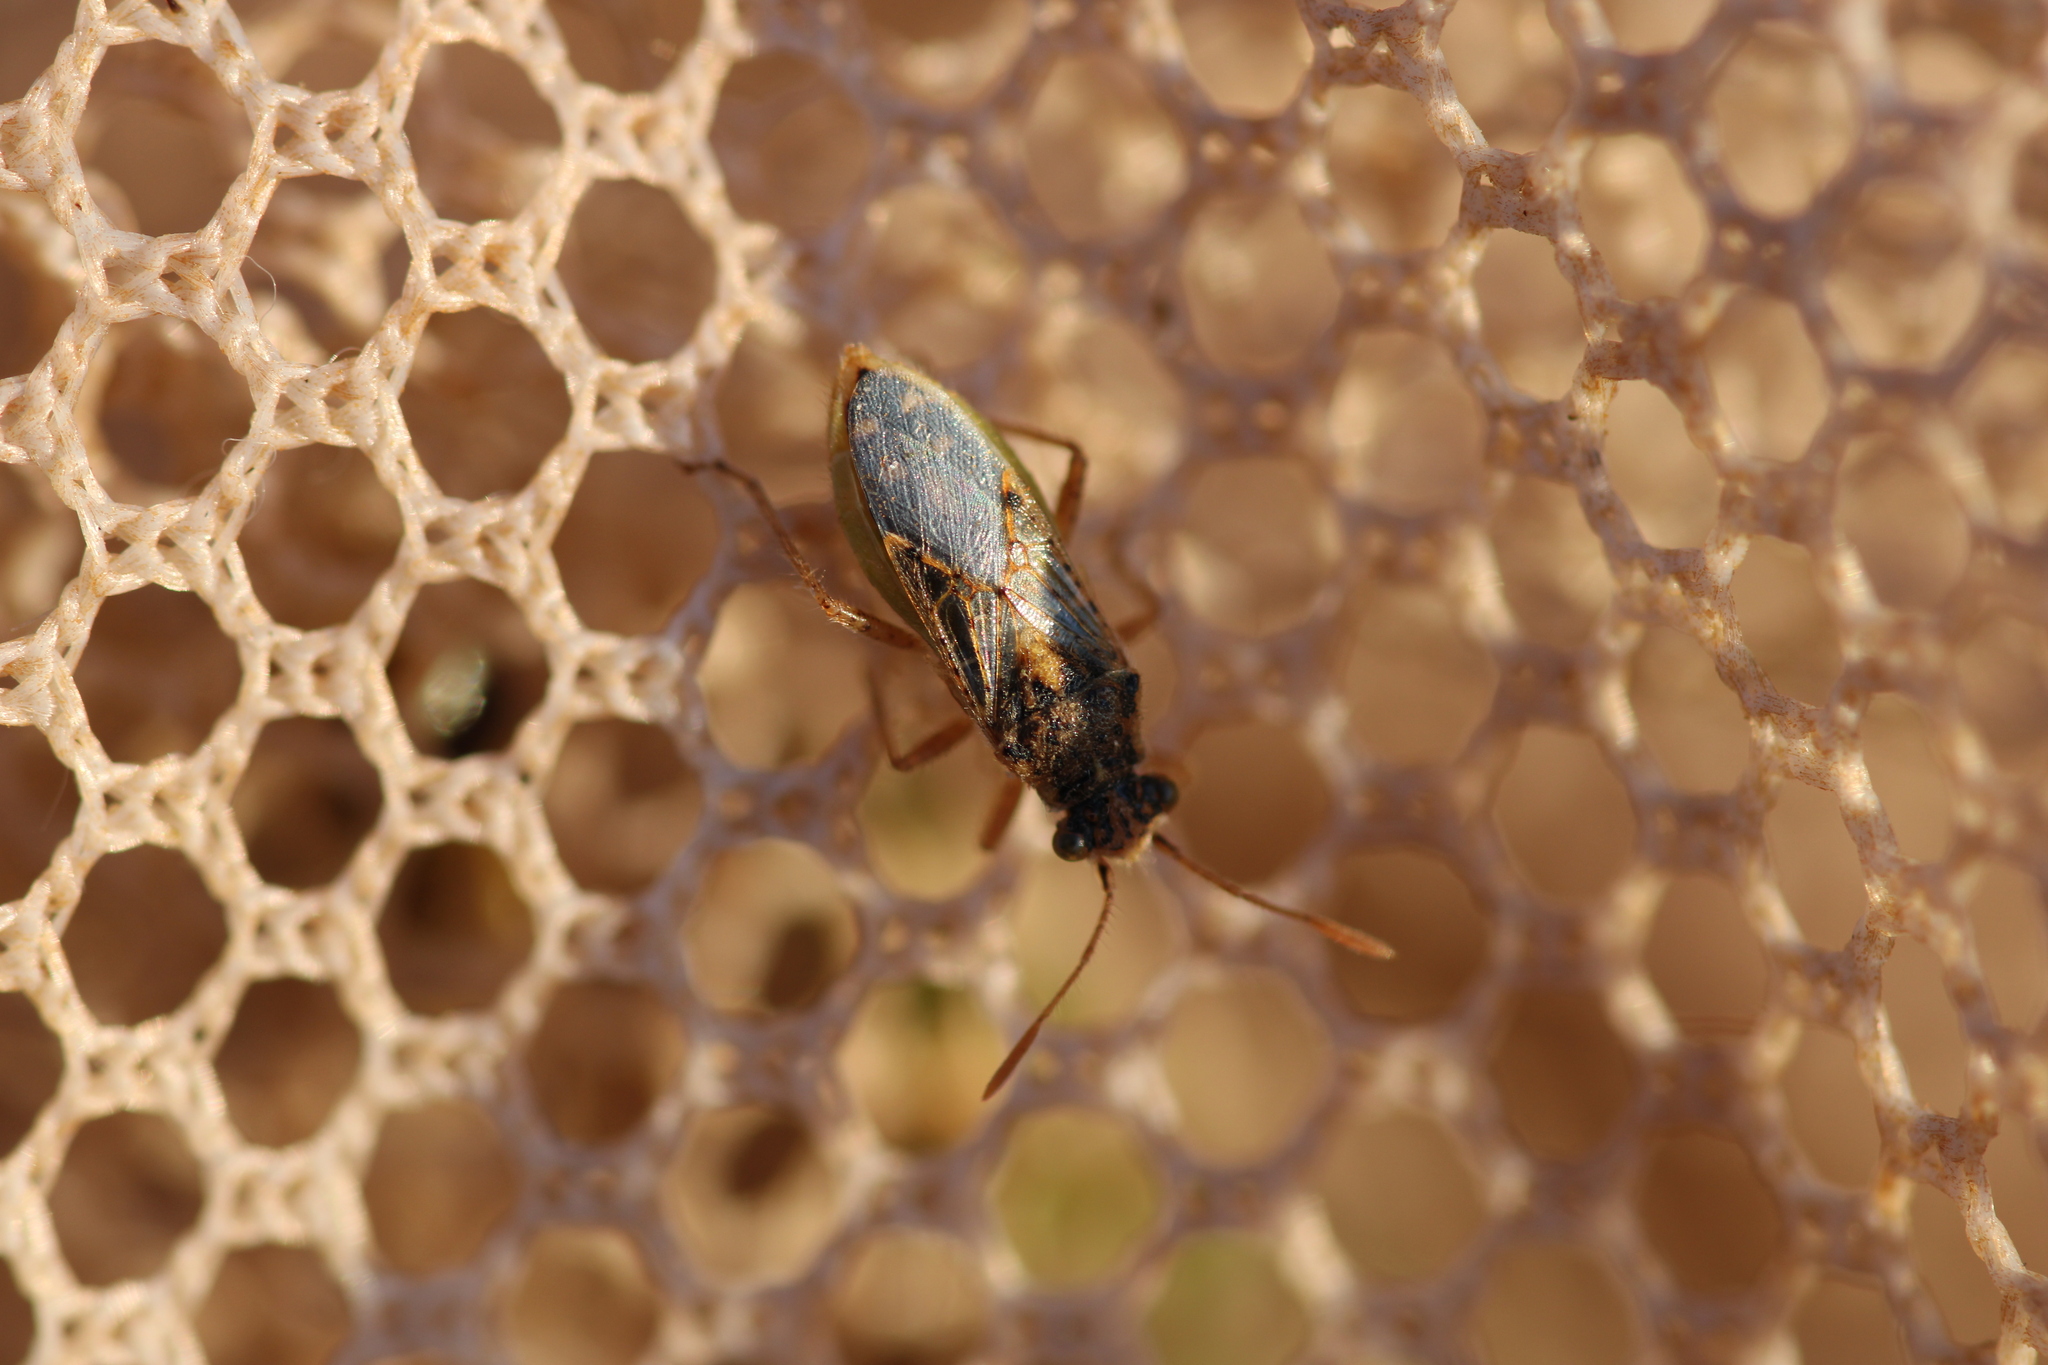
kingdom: Animalia
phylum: Arthropoda
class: Insecta
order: Hemiptera
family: Rhopalidae
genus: Brachycarenus
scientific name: Brachycarenus tigrinus
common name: Scentless plant bug
